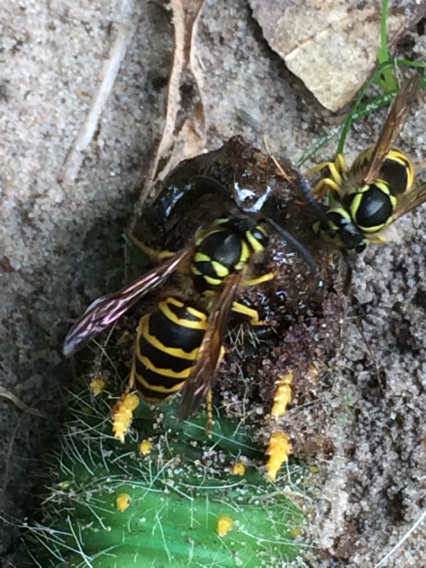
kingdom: Animalia
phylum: Arthropoda
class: Insecta
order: Hymenoptera
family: Vespidae
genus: Vespula
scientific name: Vespula maculifrons
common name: Eastern yellowjacket
